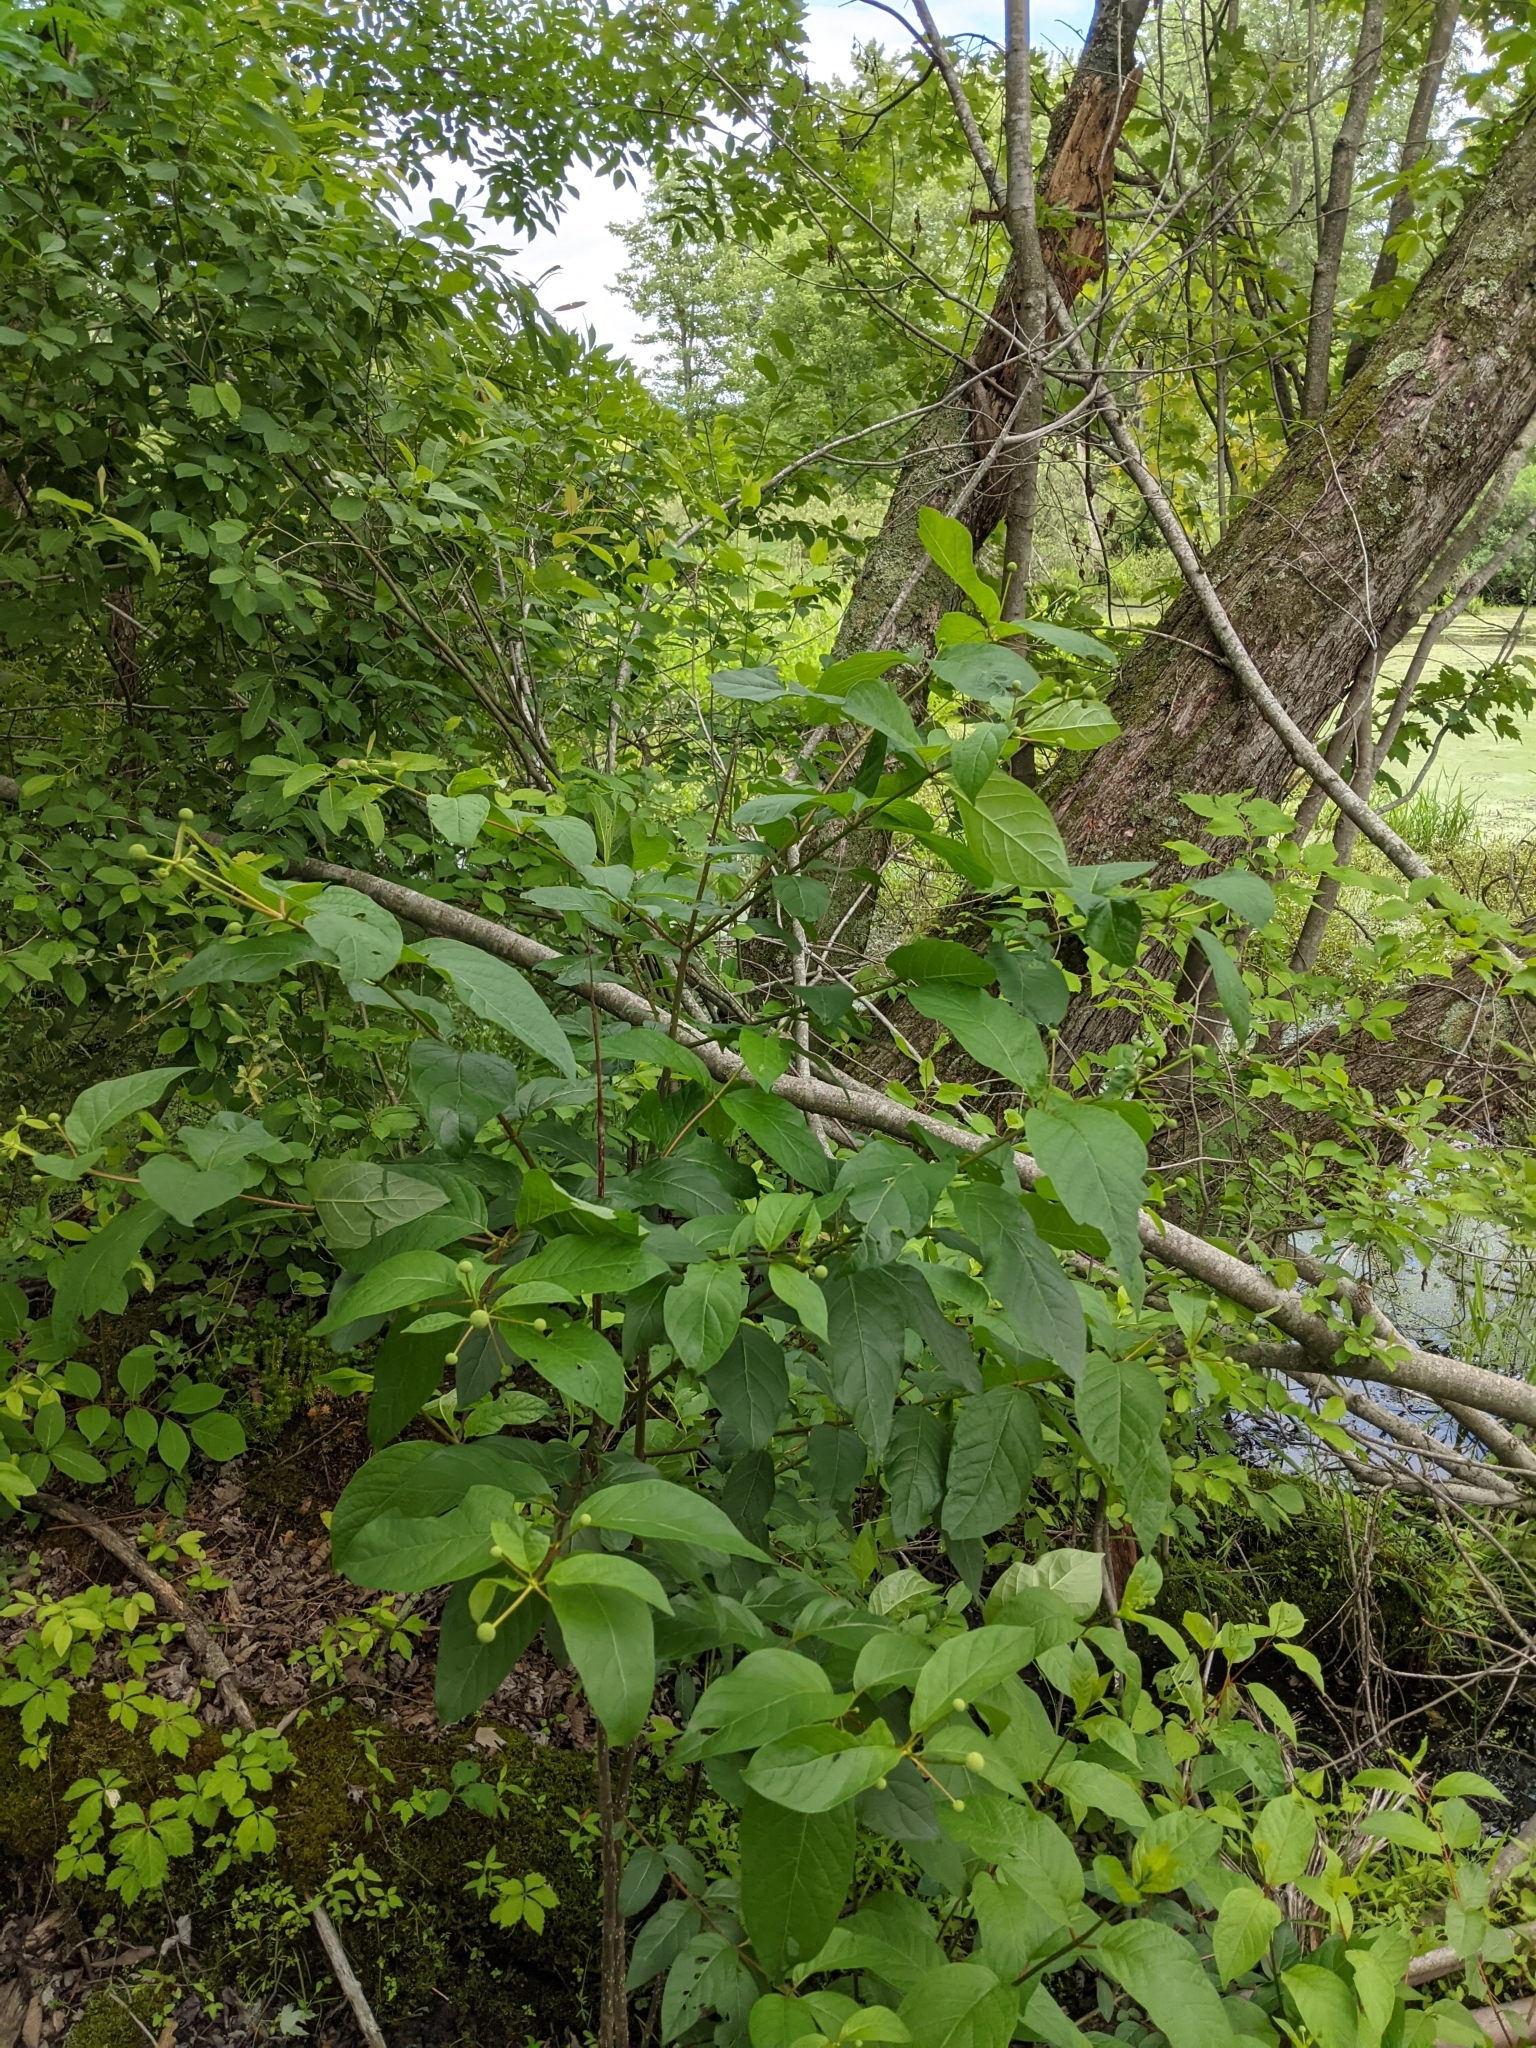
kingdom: Plantae
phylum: Tracheophyta
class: Magnoliopsida
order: Gentianales
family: Rubiaceae
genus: Cephalanthus
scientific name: Cephalanthus occidentalis
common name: Button-willow
